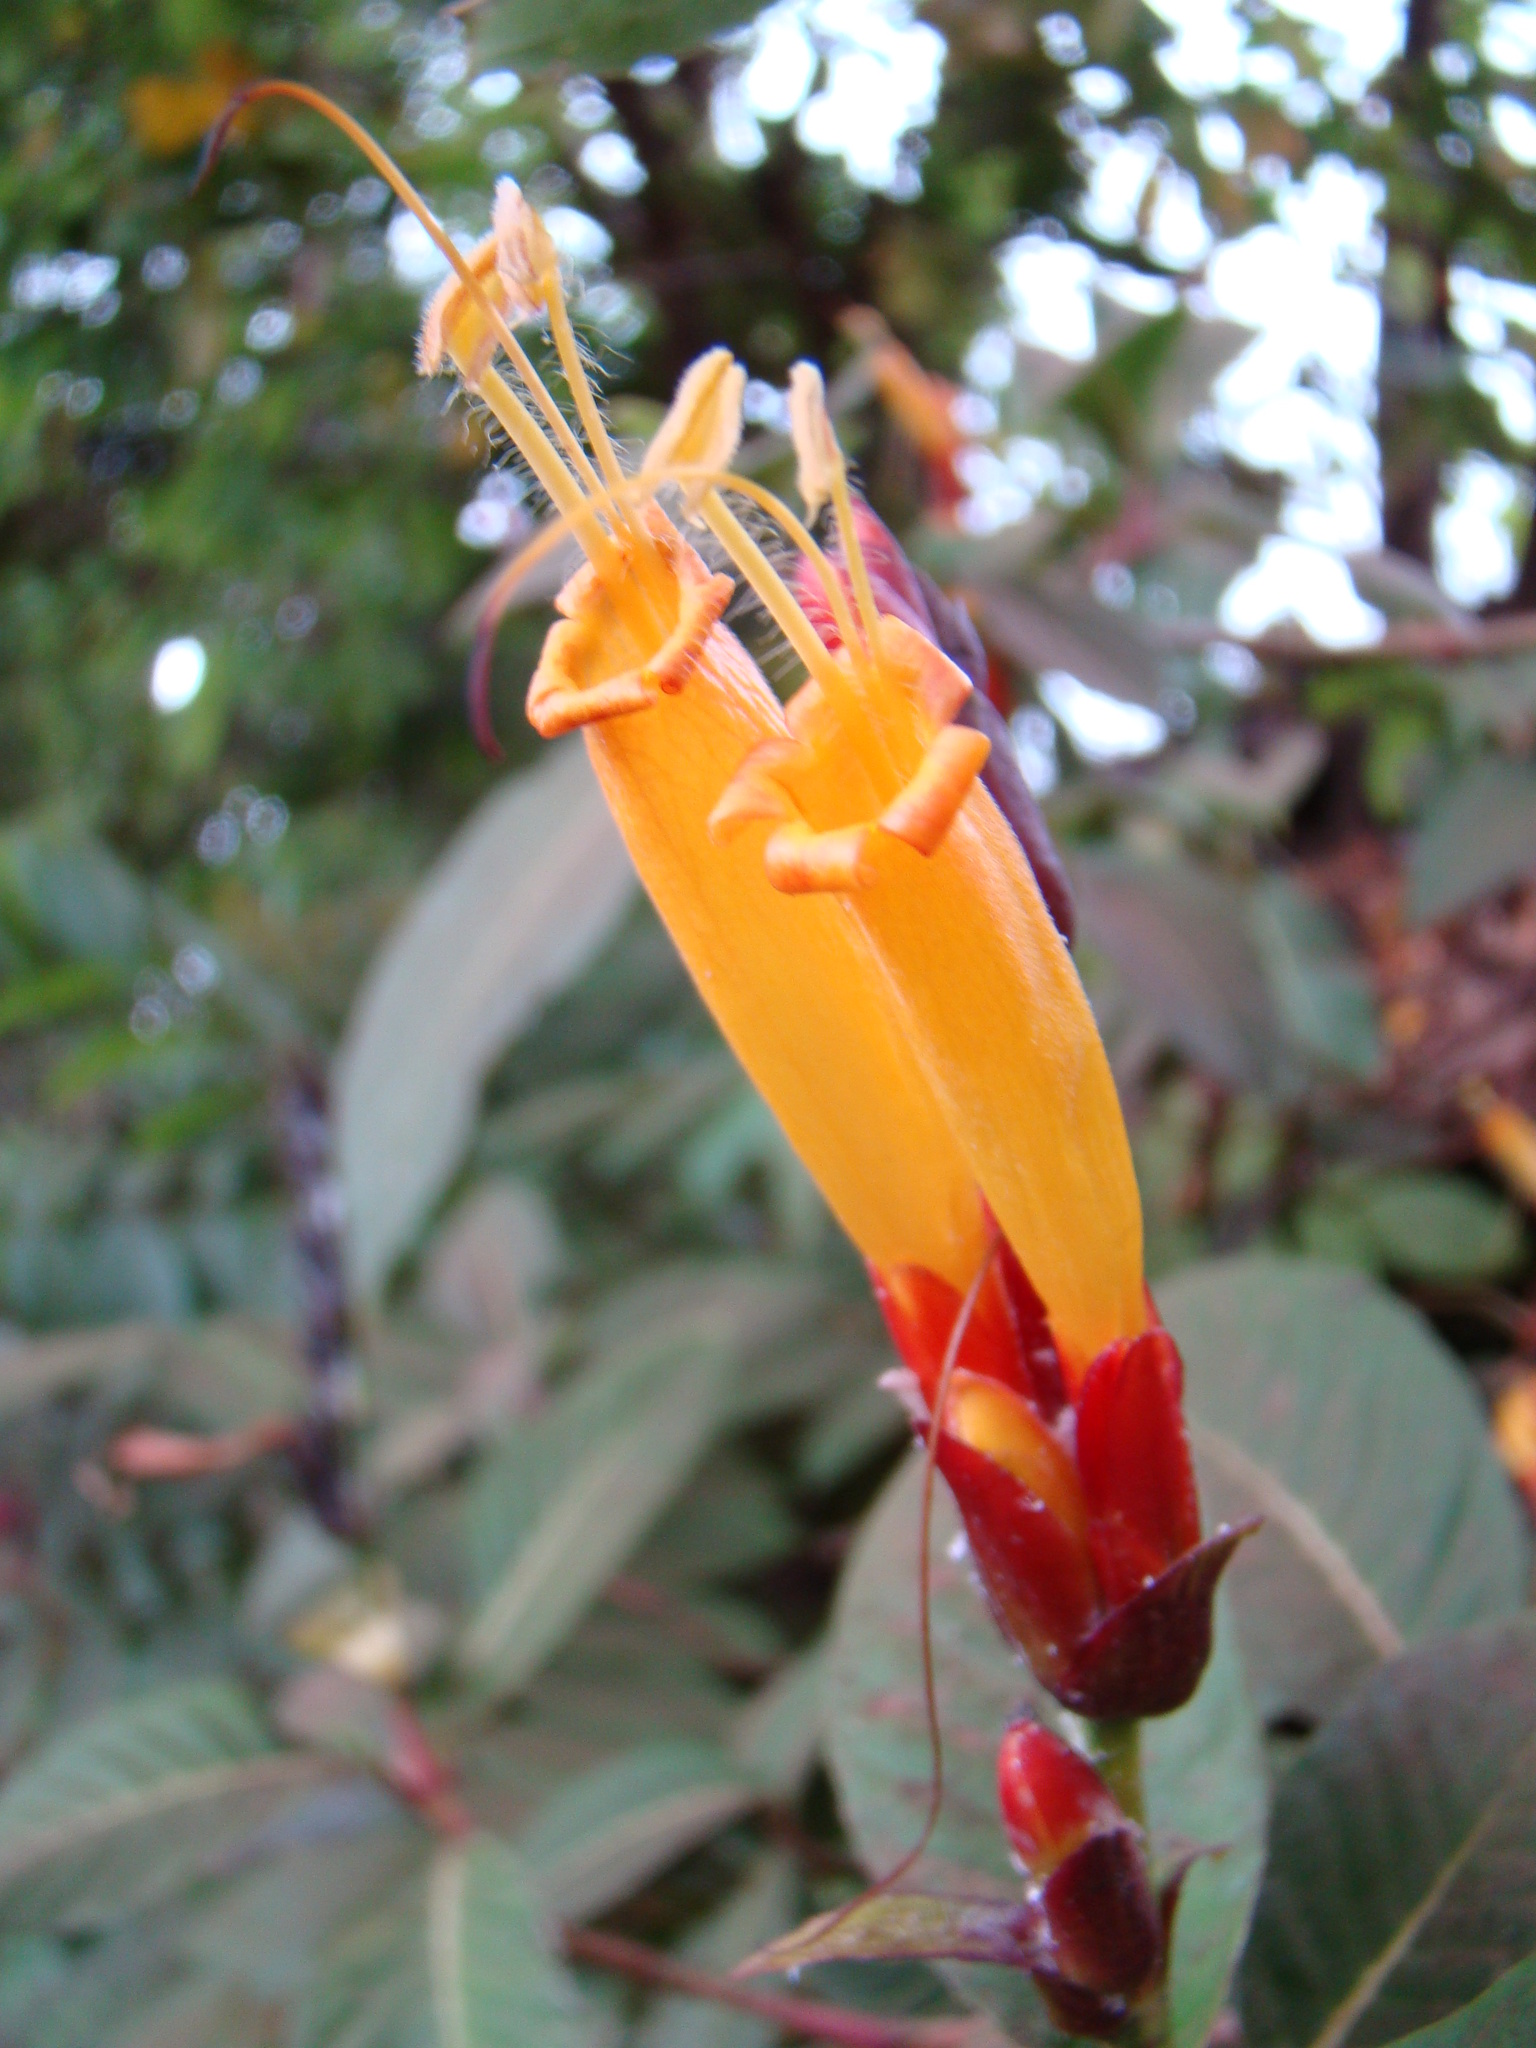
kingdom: Plantae
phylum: Tracheophyta
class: Magnoliopsida
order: Lamiales
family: Acanthaceae
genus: Sanchezia
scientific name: Sanchezia parvibracteata
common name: Sanchezia
